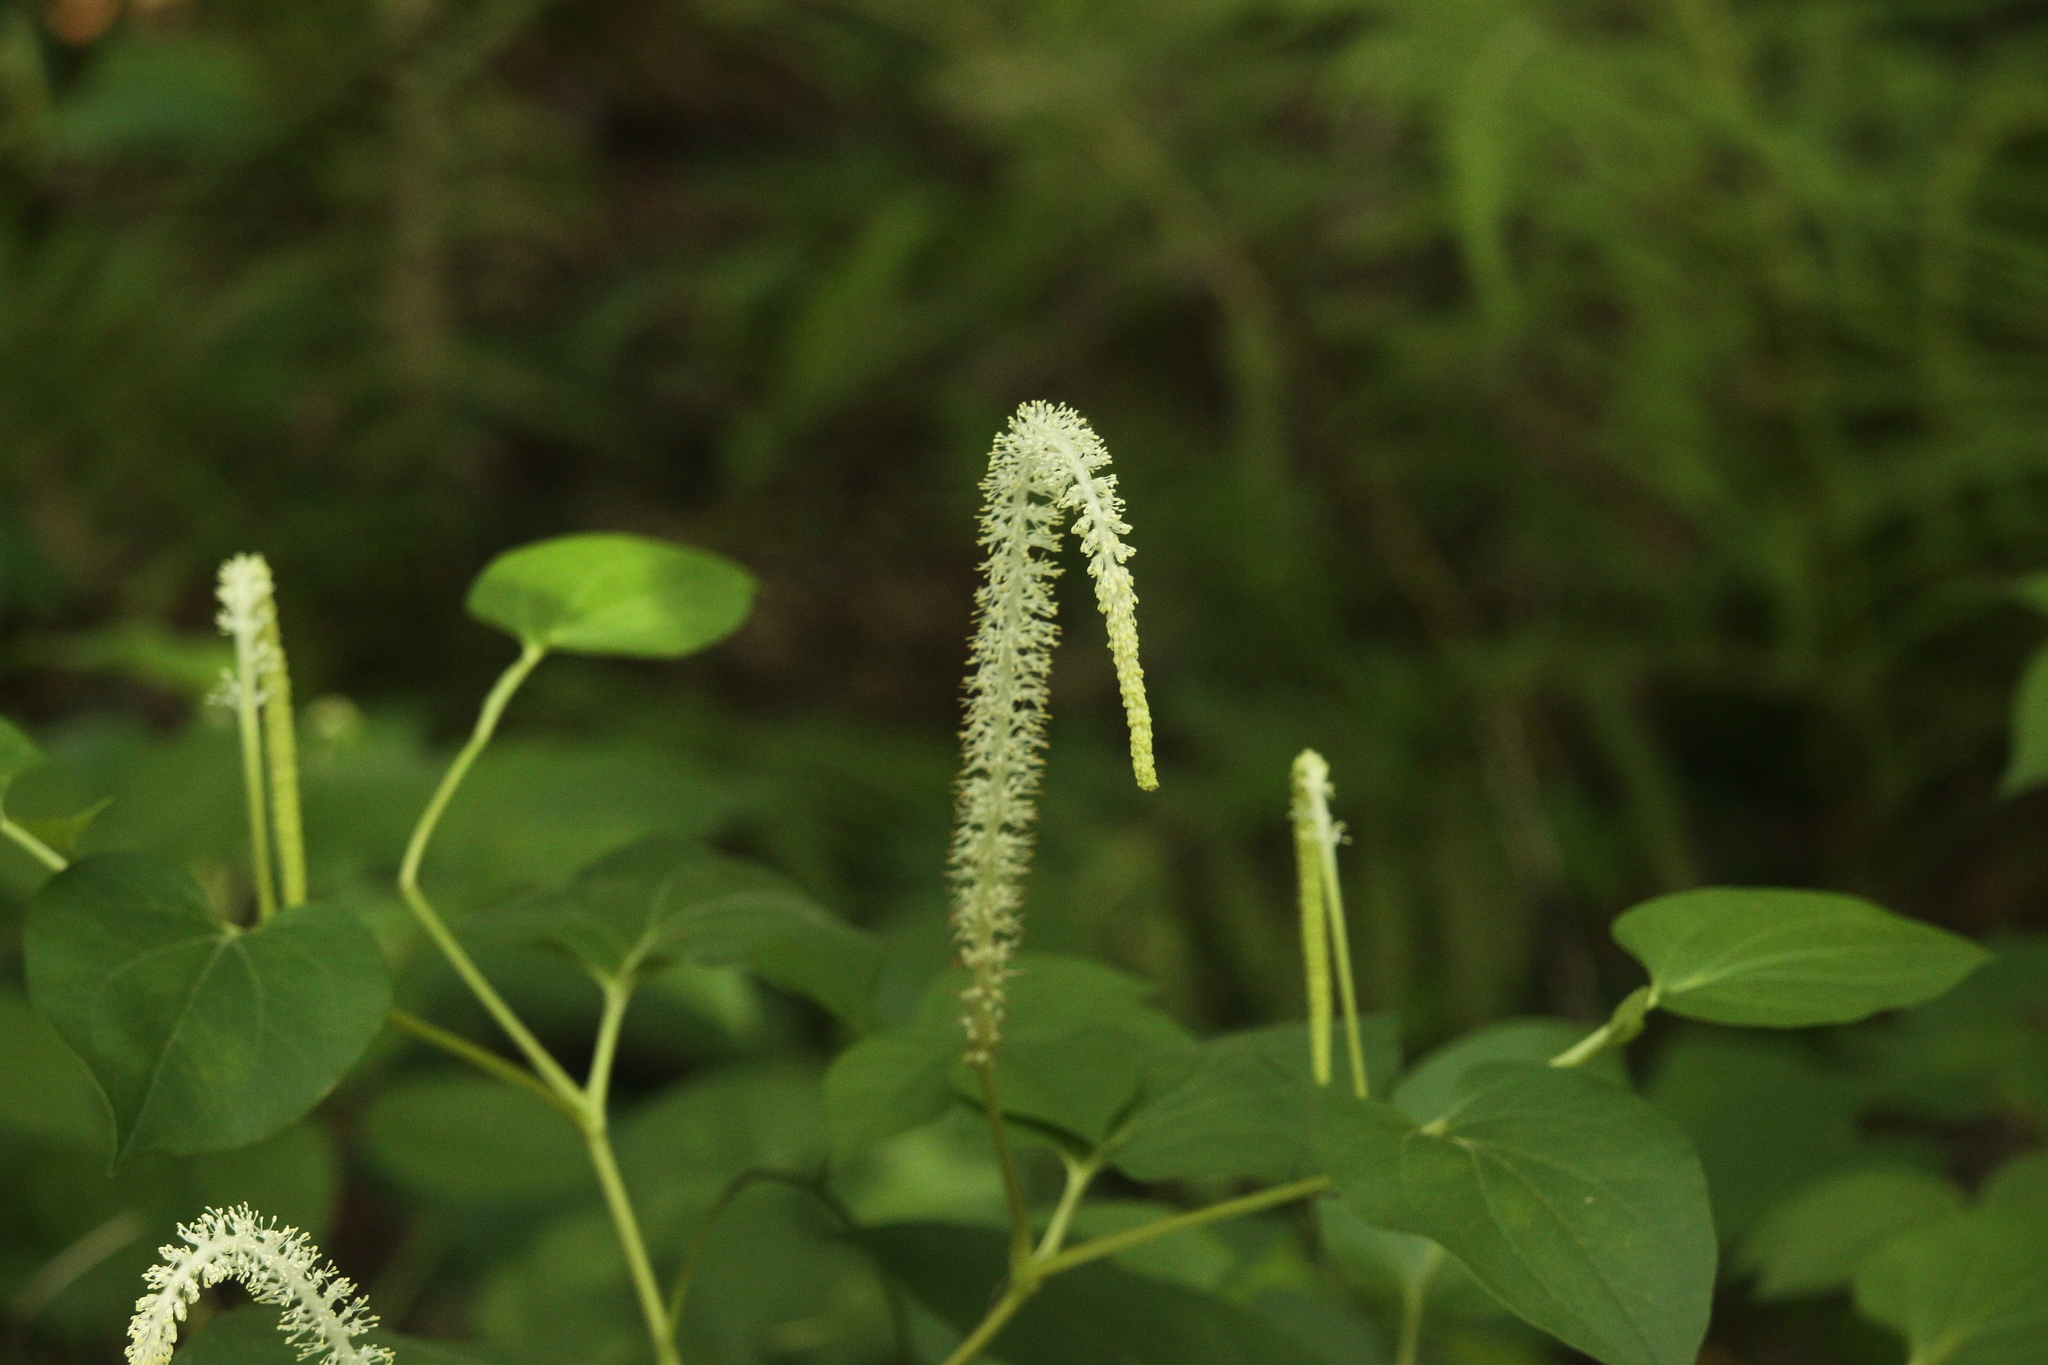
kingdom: Plantae
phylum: Tracheophyta
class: Magnoliopsida
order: Piperales
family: Saururaceae
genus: Saururus
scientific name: Saururus cernuus
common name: Lizard's-tail
